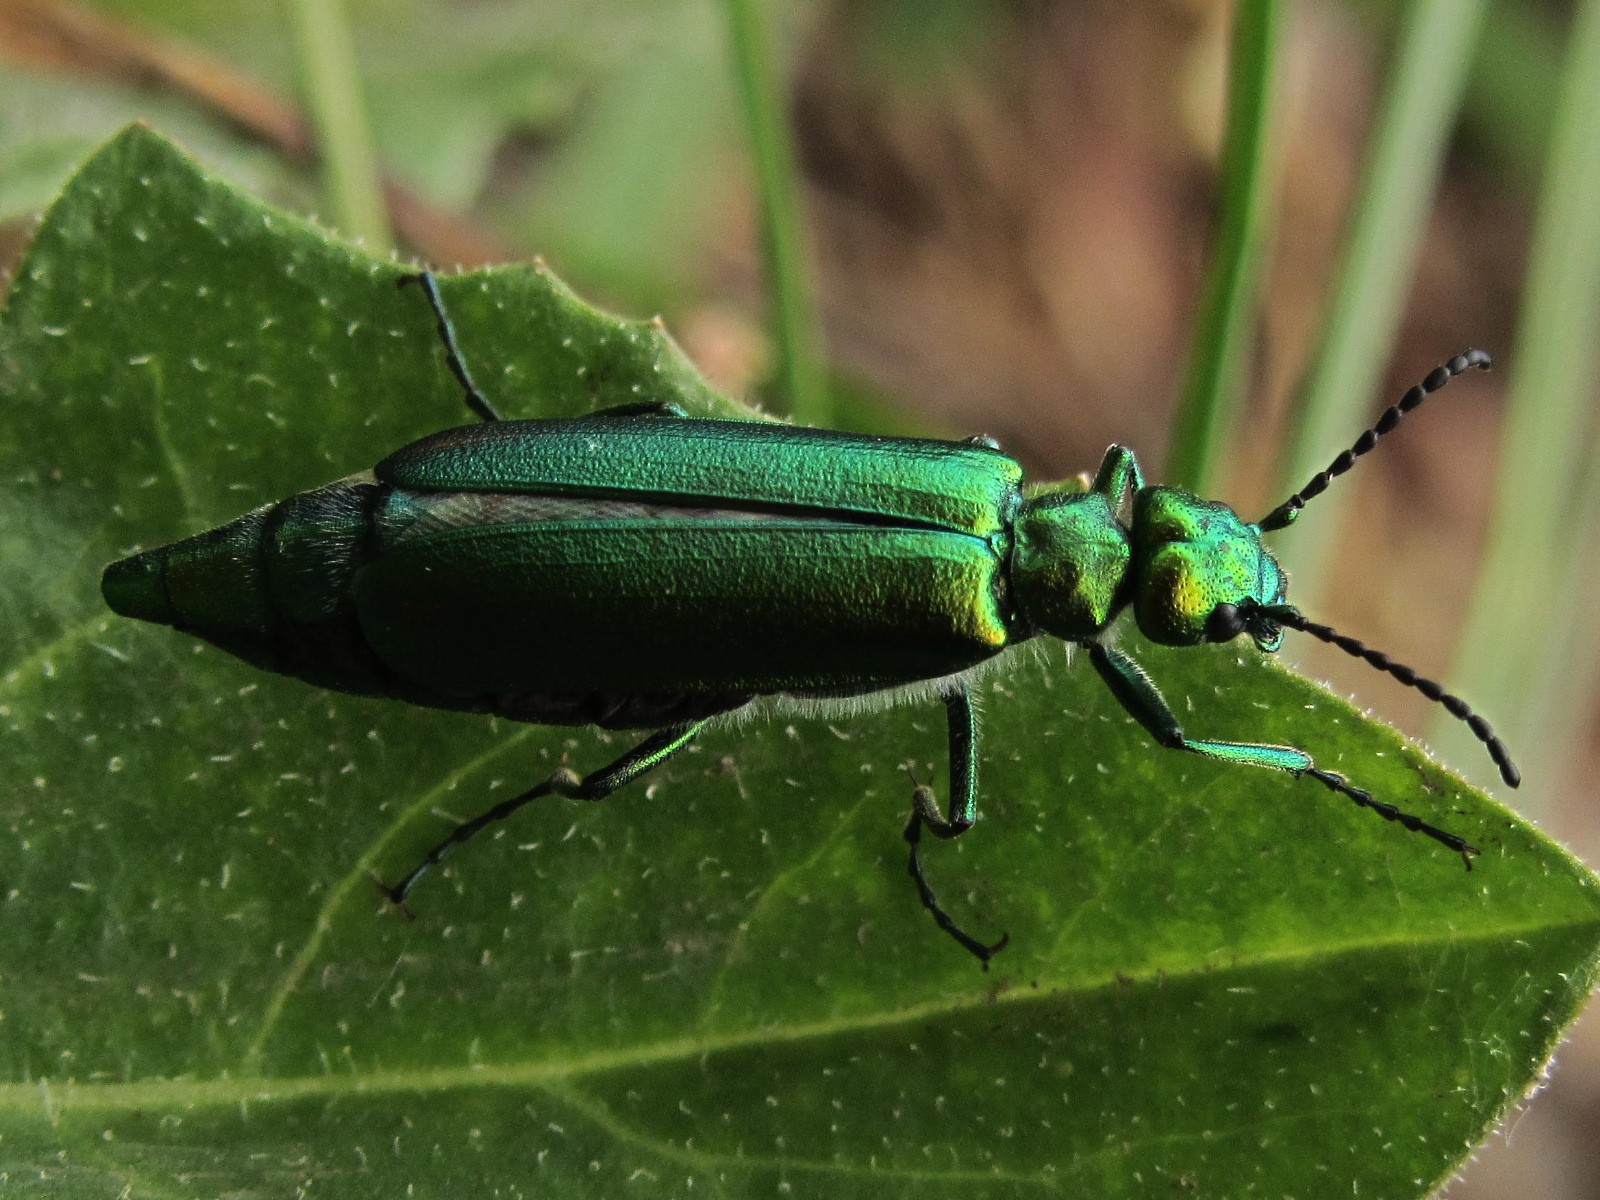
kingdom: Animalia
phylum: Arthropoda
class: Insecta
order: Coleoptera
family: Meloidae
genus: Lytta
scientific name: Lytta vesicatoria
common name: Spanish fly
